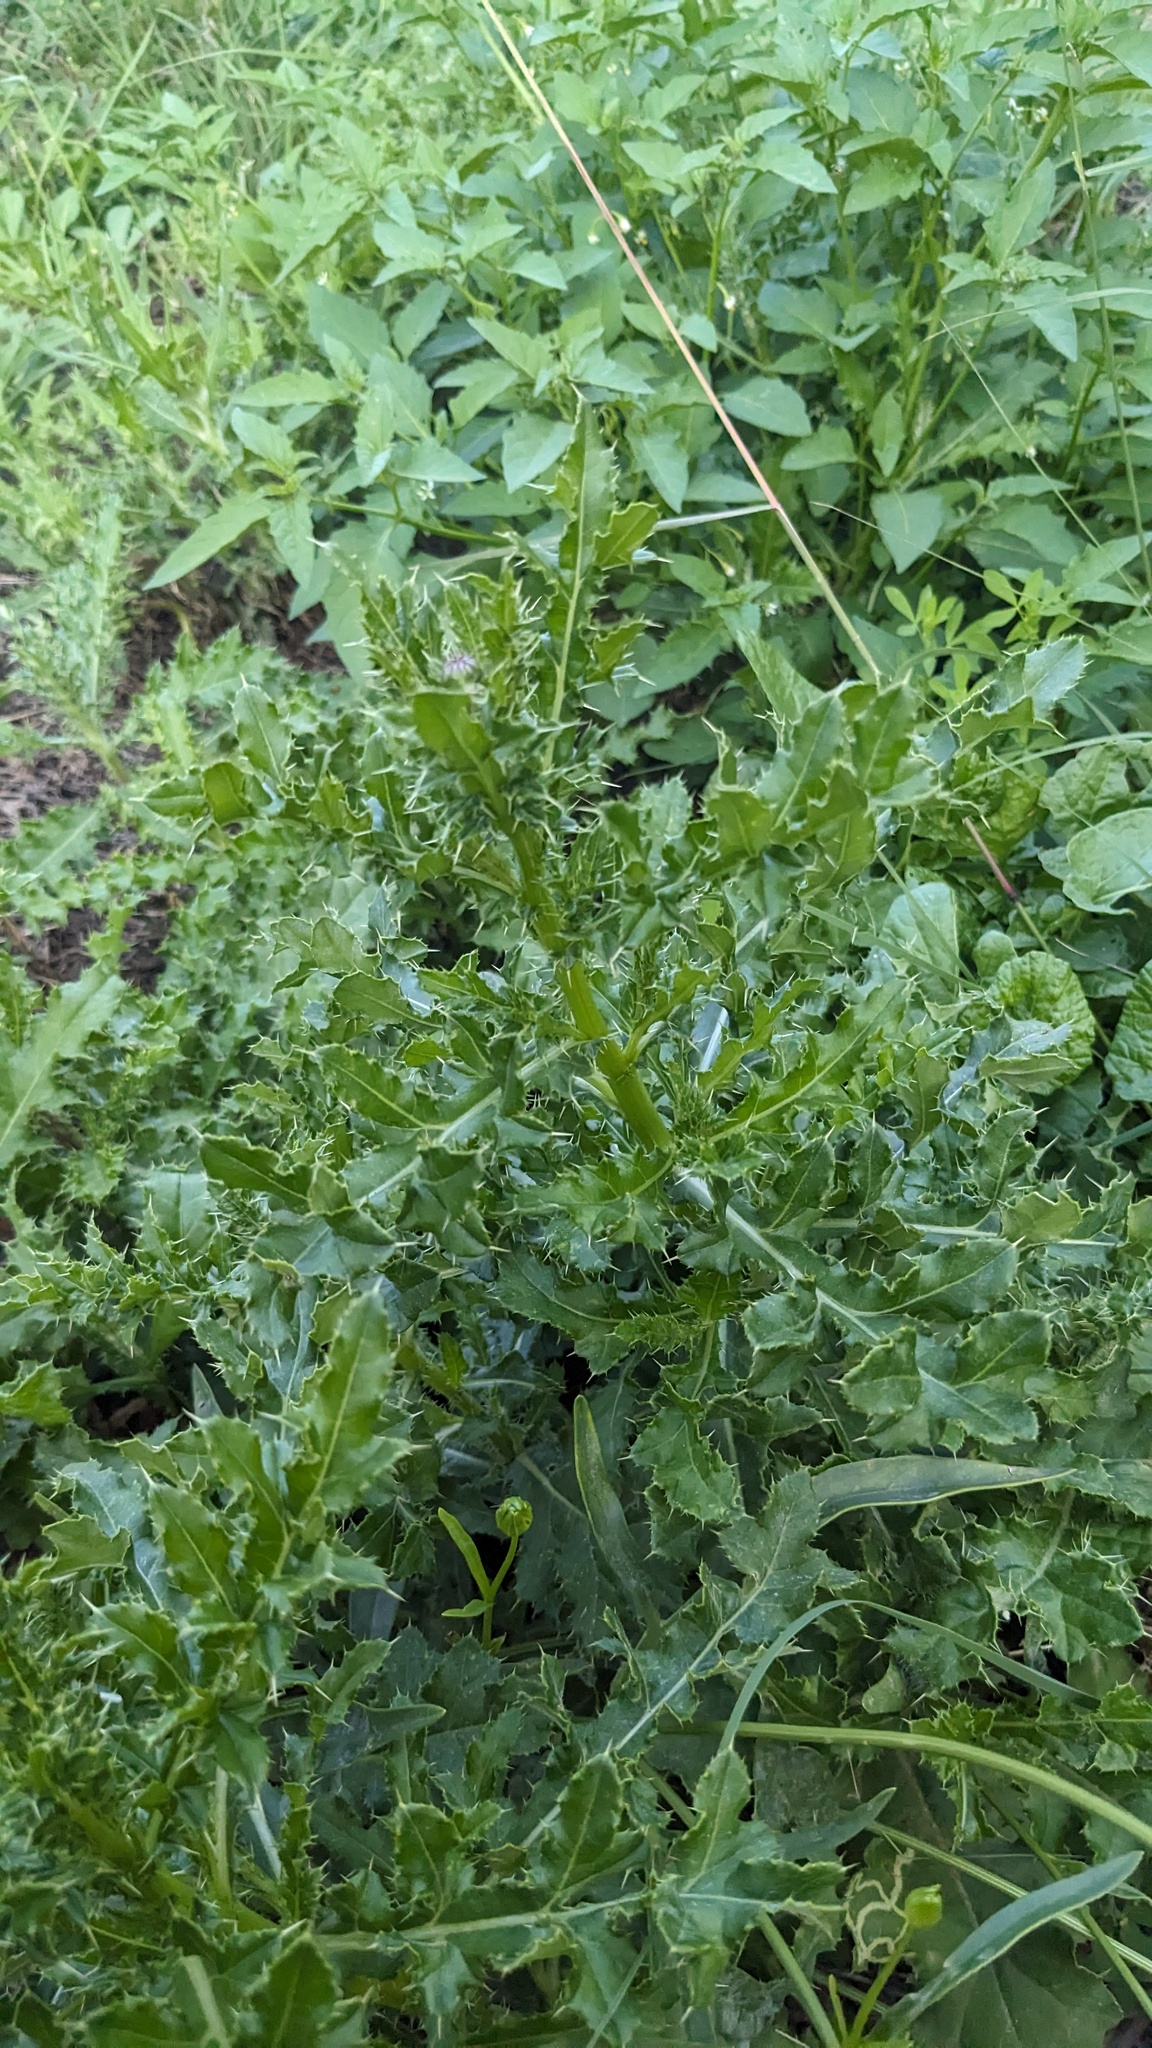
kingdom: Plantae
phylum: Tracheophyta
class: Magnoliopsida
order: Asterales
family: Asteraceae
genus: Cirsium
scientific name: Cirsium arvense
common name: Creeping thistle
